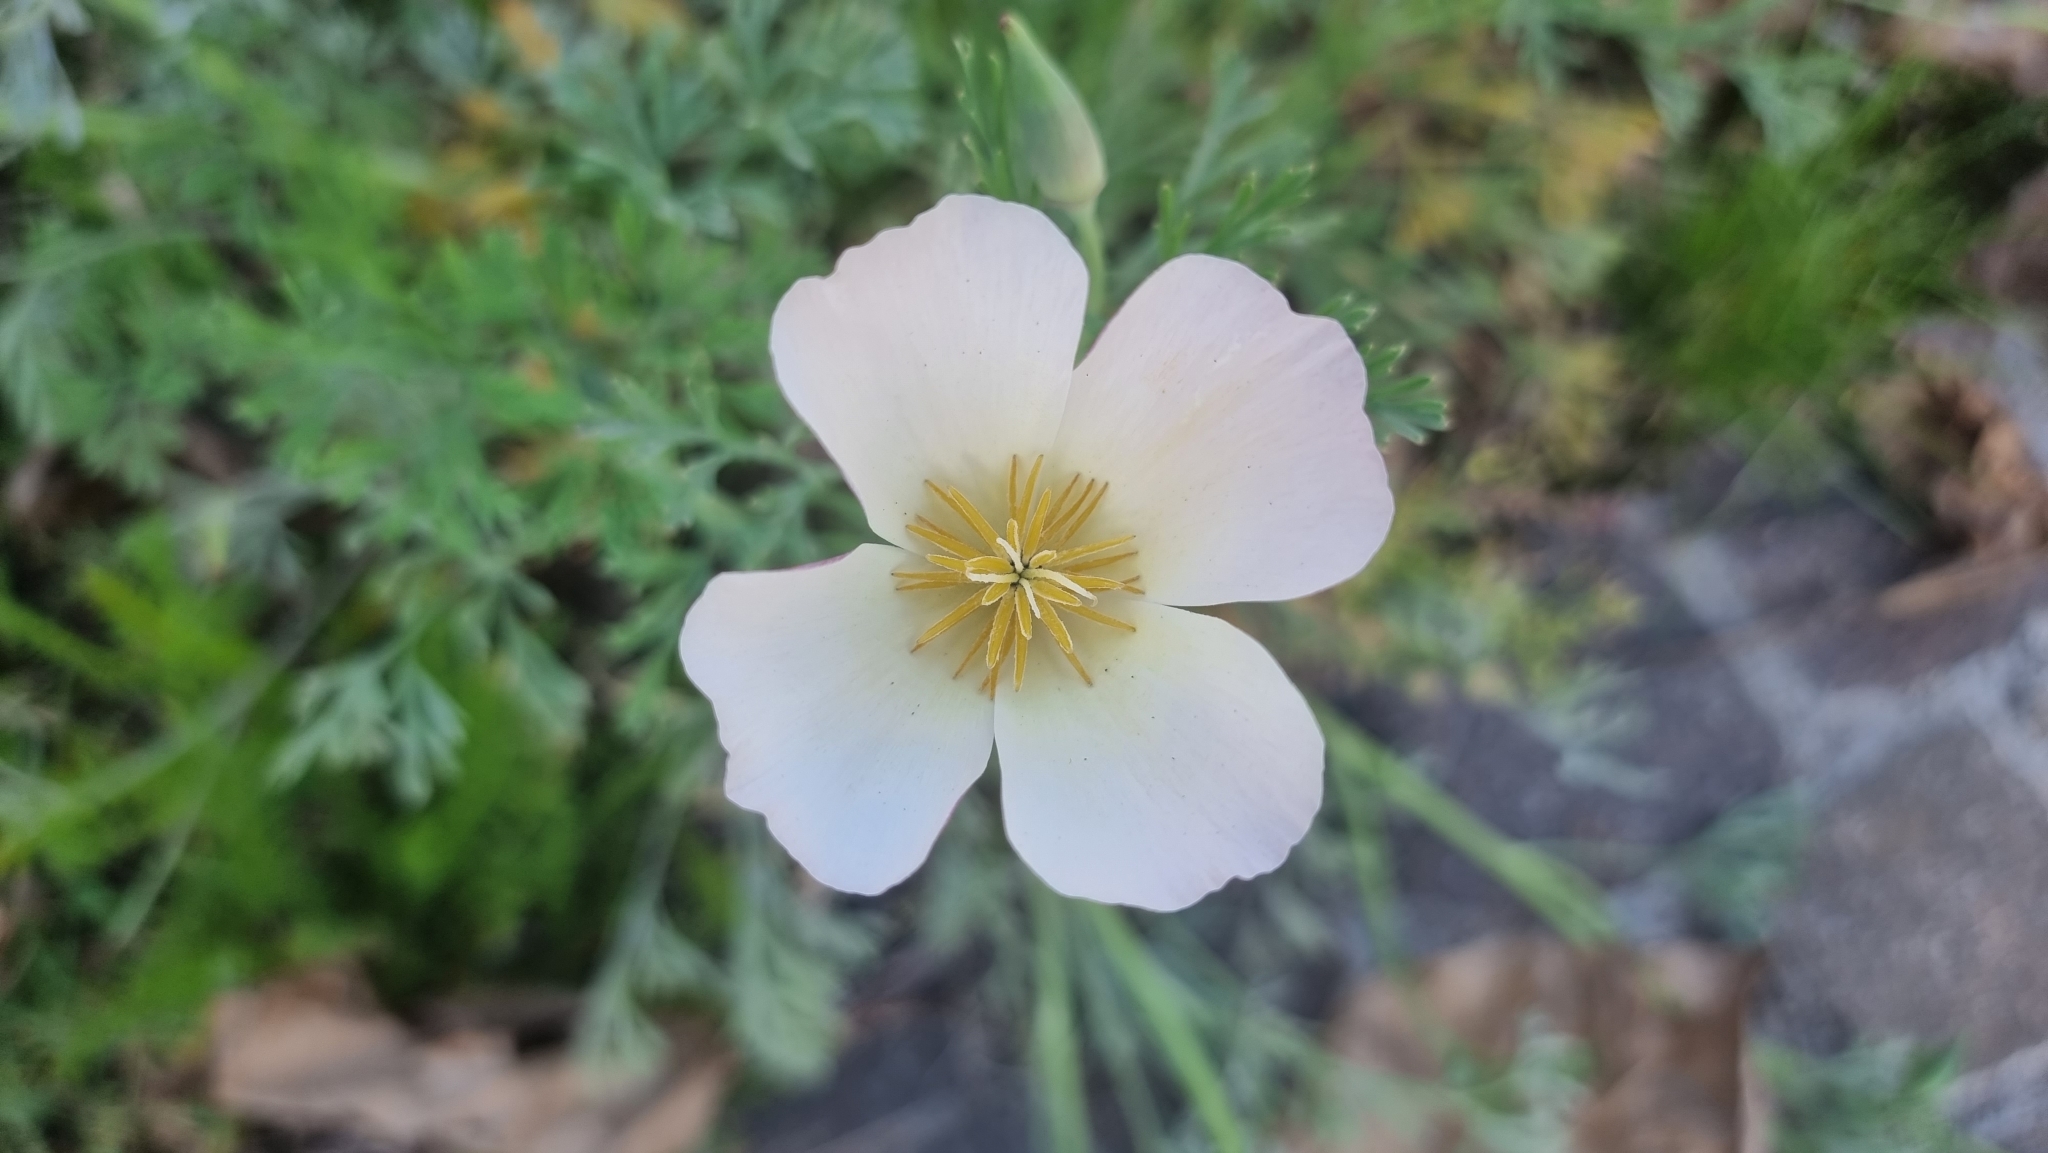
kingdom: Plantae
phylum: Tracheophyta
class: Magnoliopsida
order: Ranunculales
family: Papaveraceae
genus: Eschscholzia
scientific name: Eschscholzia californica
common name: California poppy
